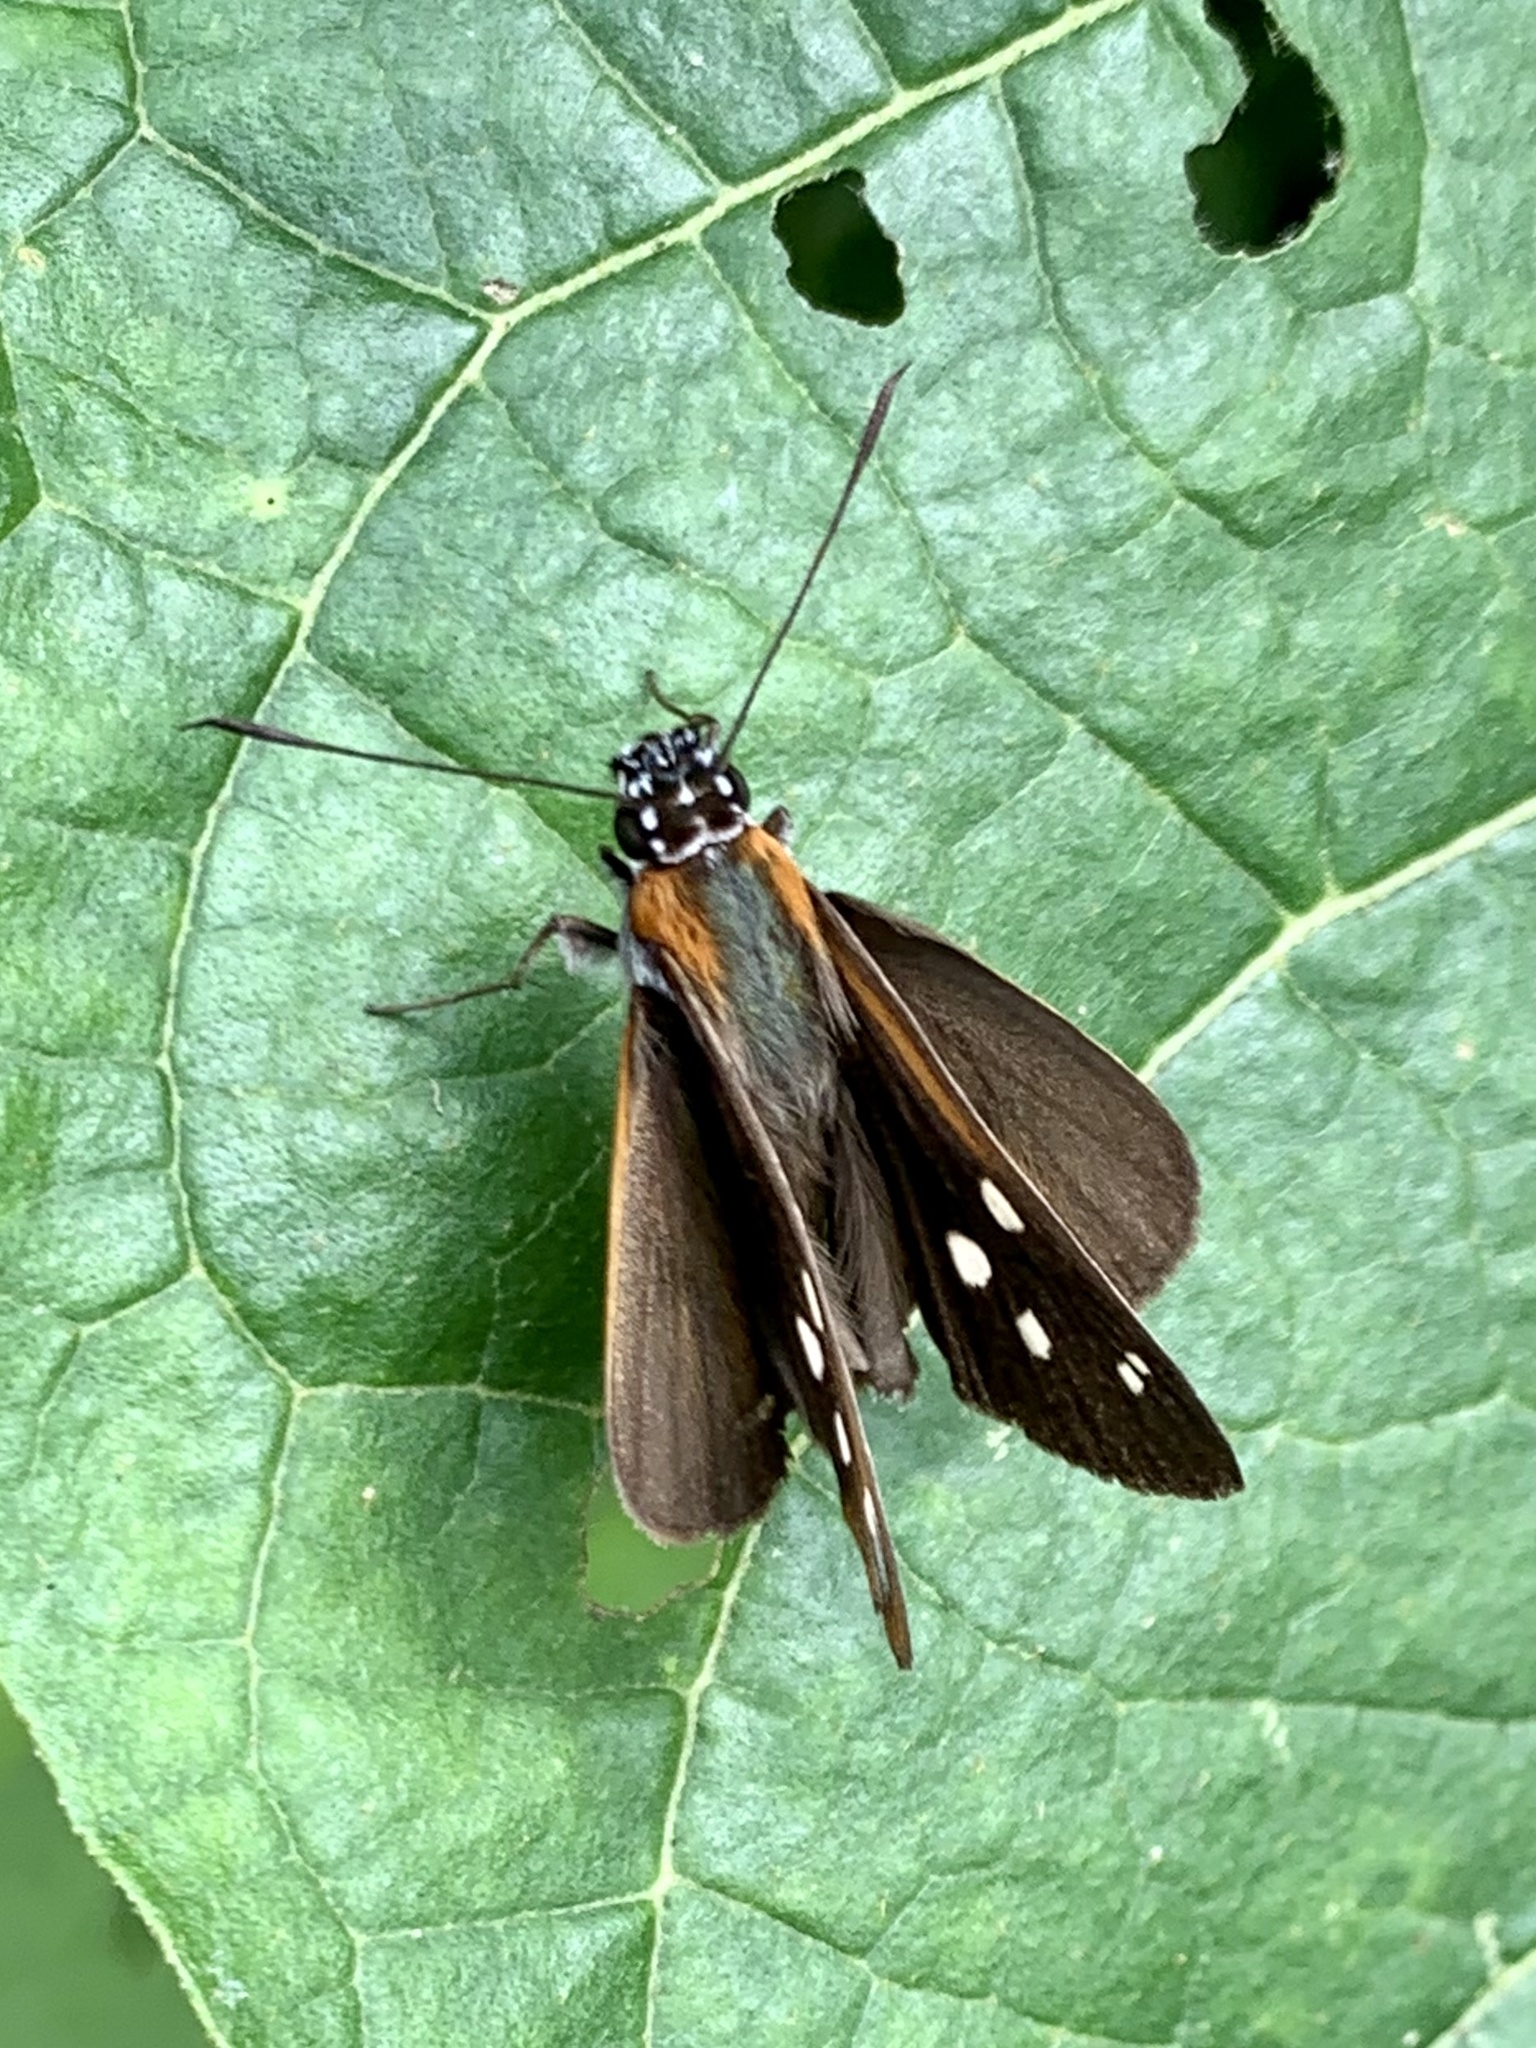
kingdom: Animalia
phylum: Arthropoda
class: Insecta
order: Lepidoptera
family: Hesperiidae
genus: Corra
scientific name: Corra
